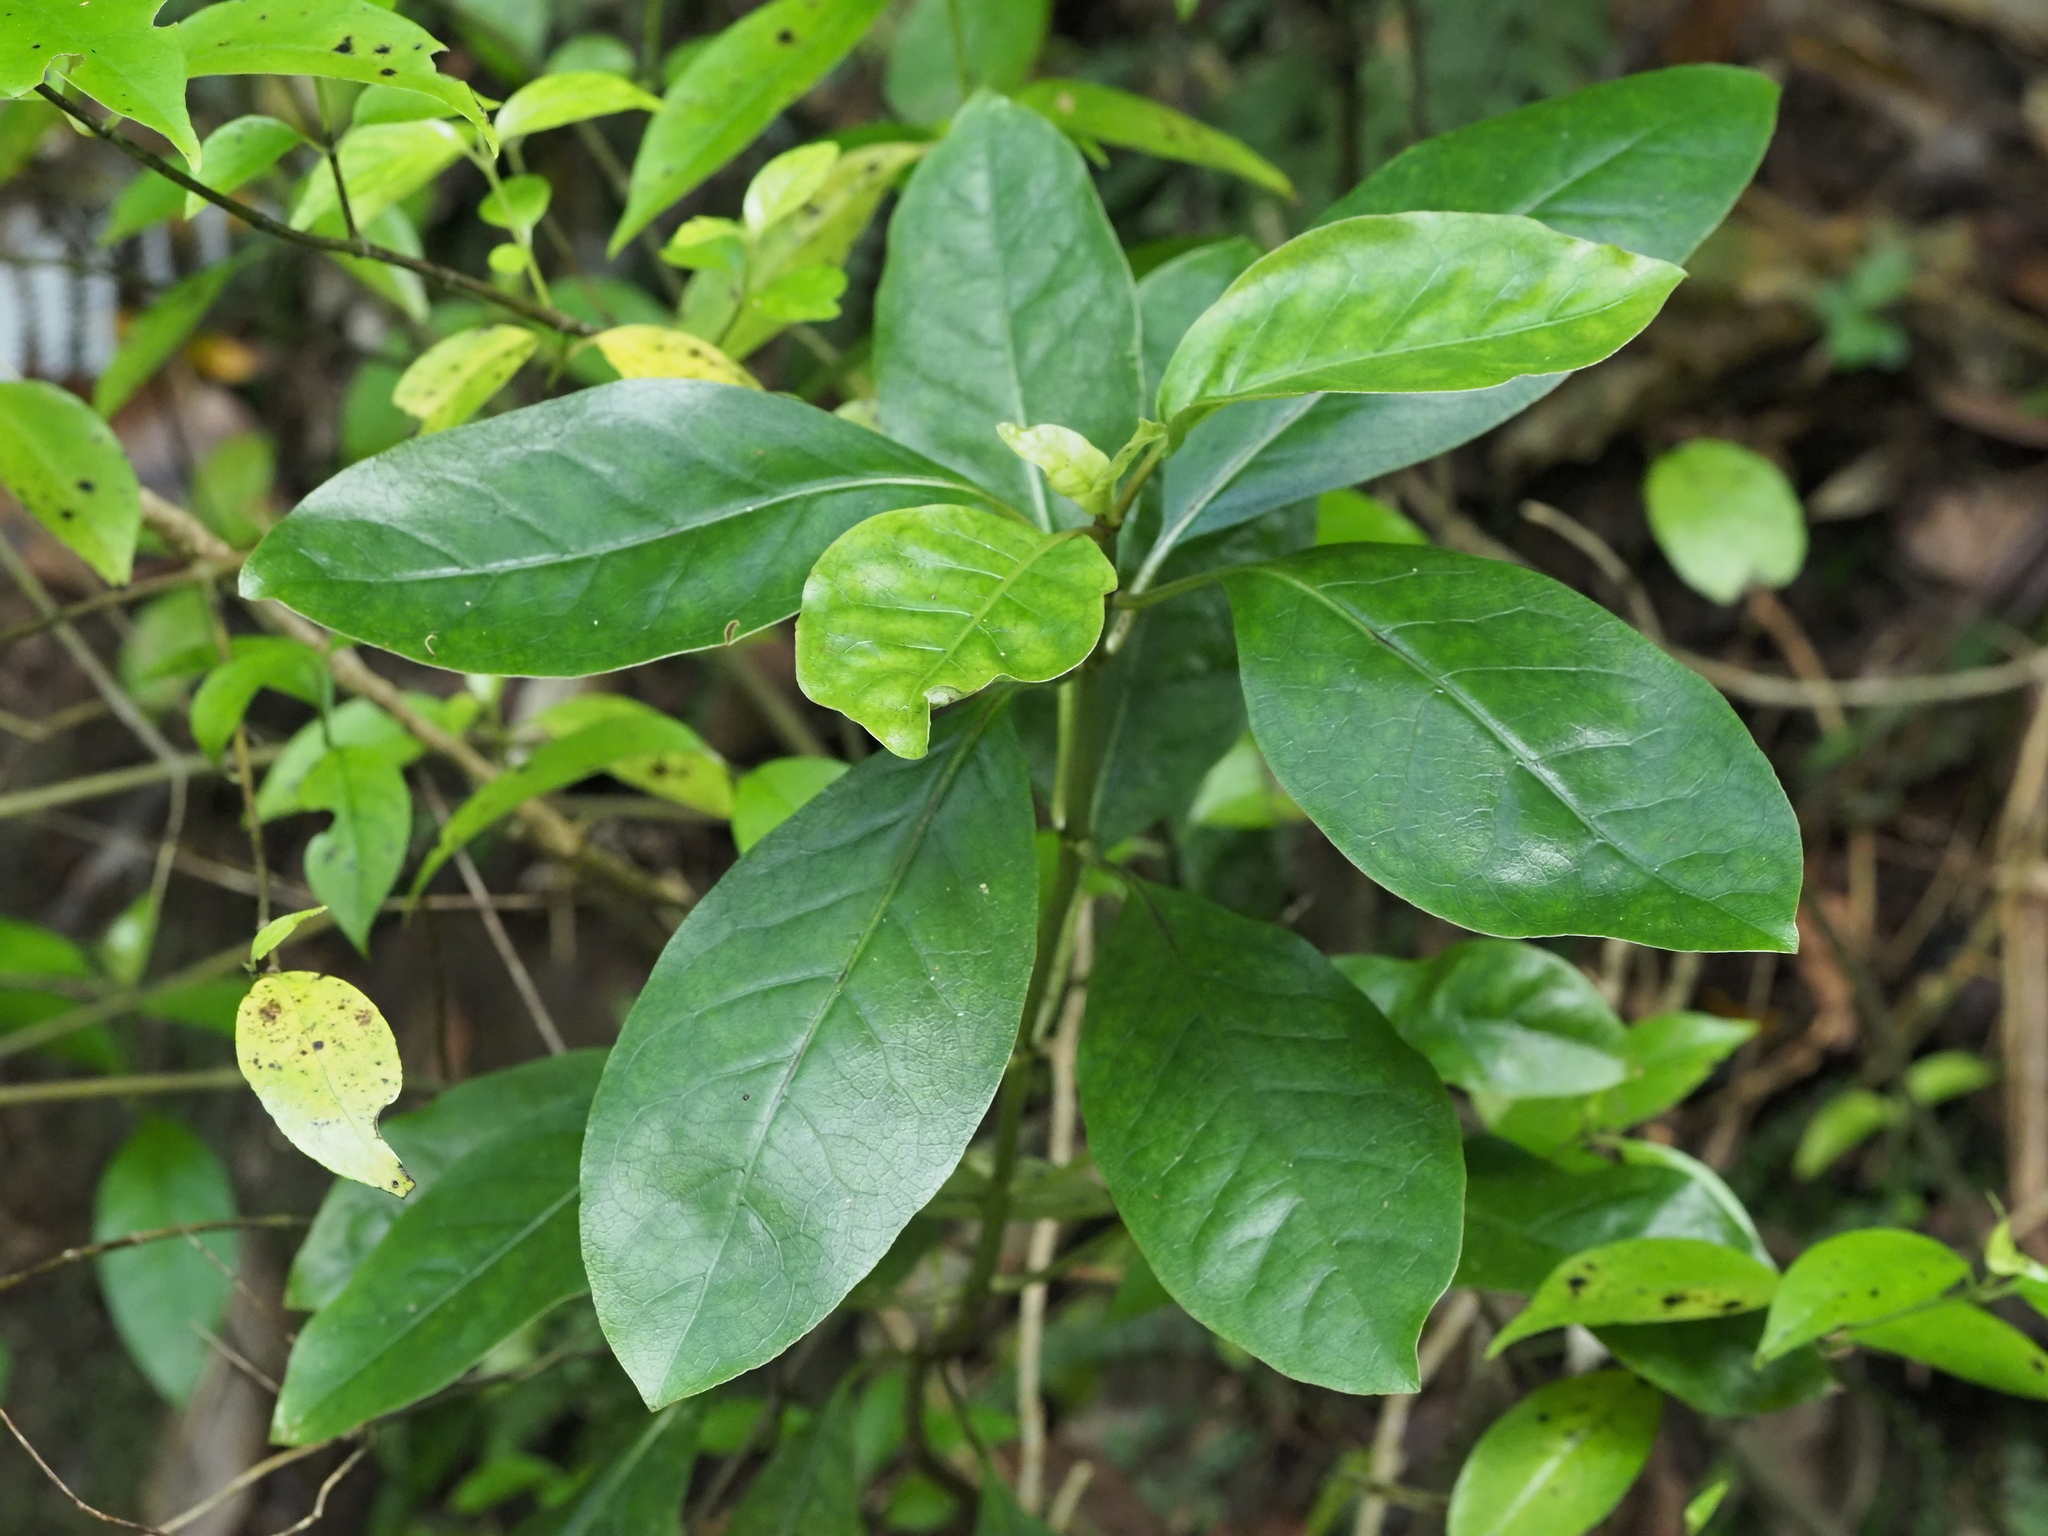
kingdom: Plantae
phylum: Tracheophyta
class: Magnoliopsida
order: Gentianales
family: Rubiaceae
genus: Coprosma
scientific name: Coprosma autumnalis
